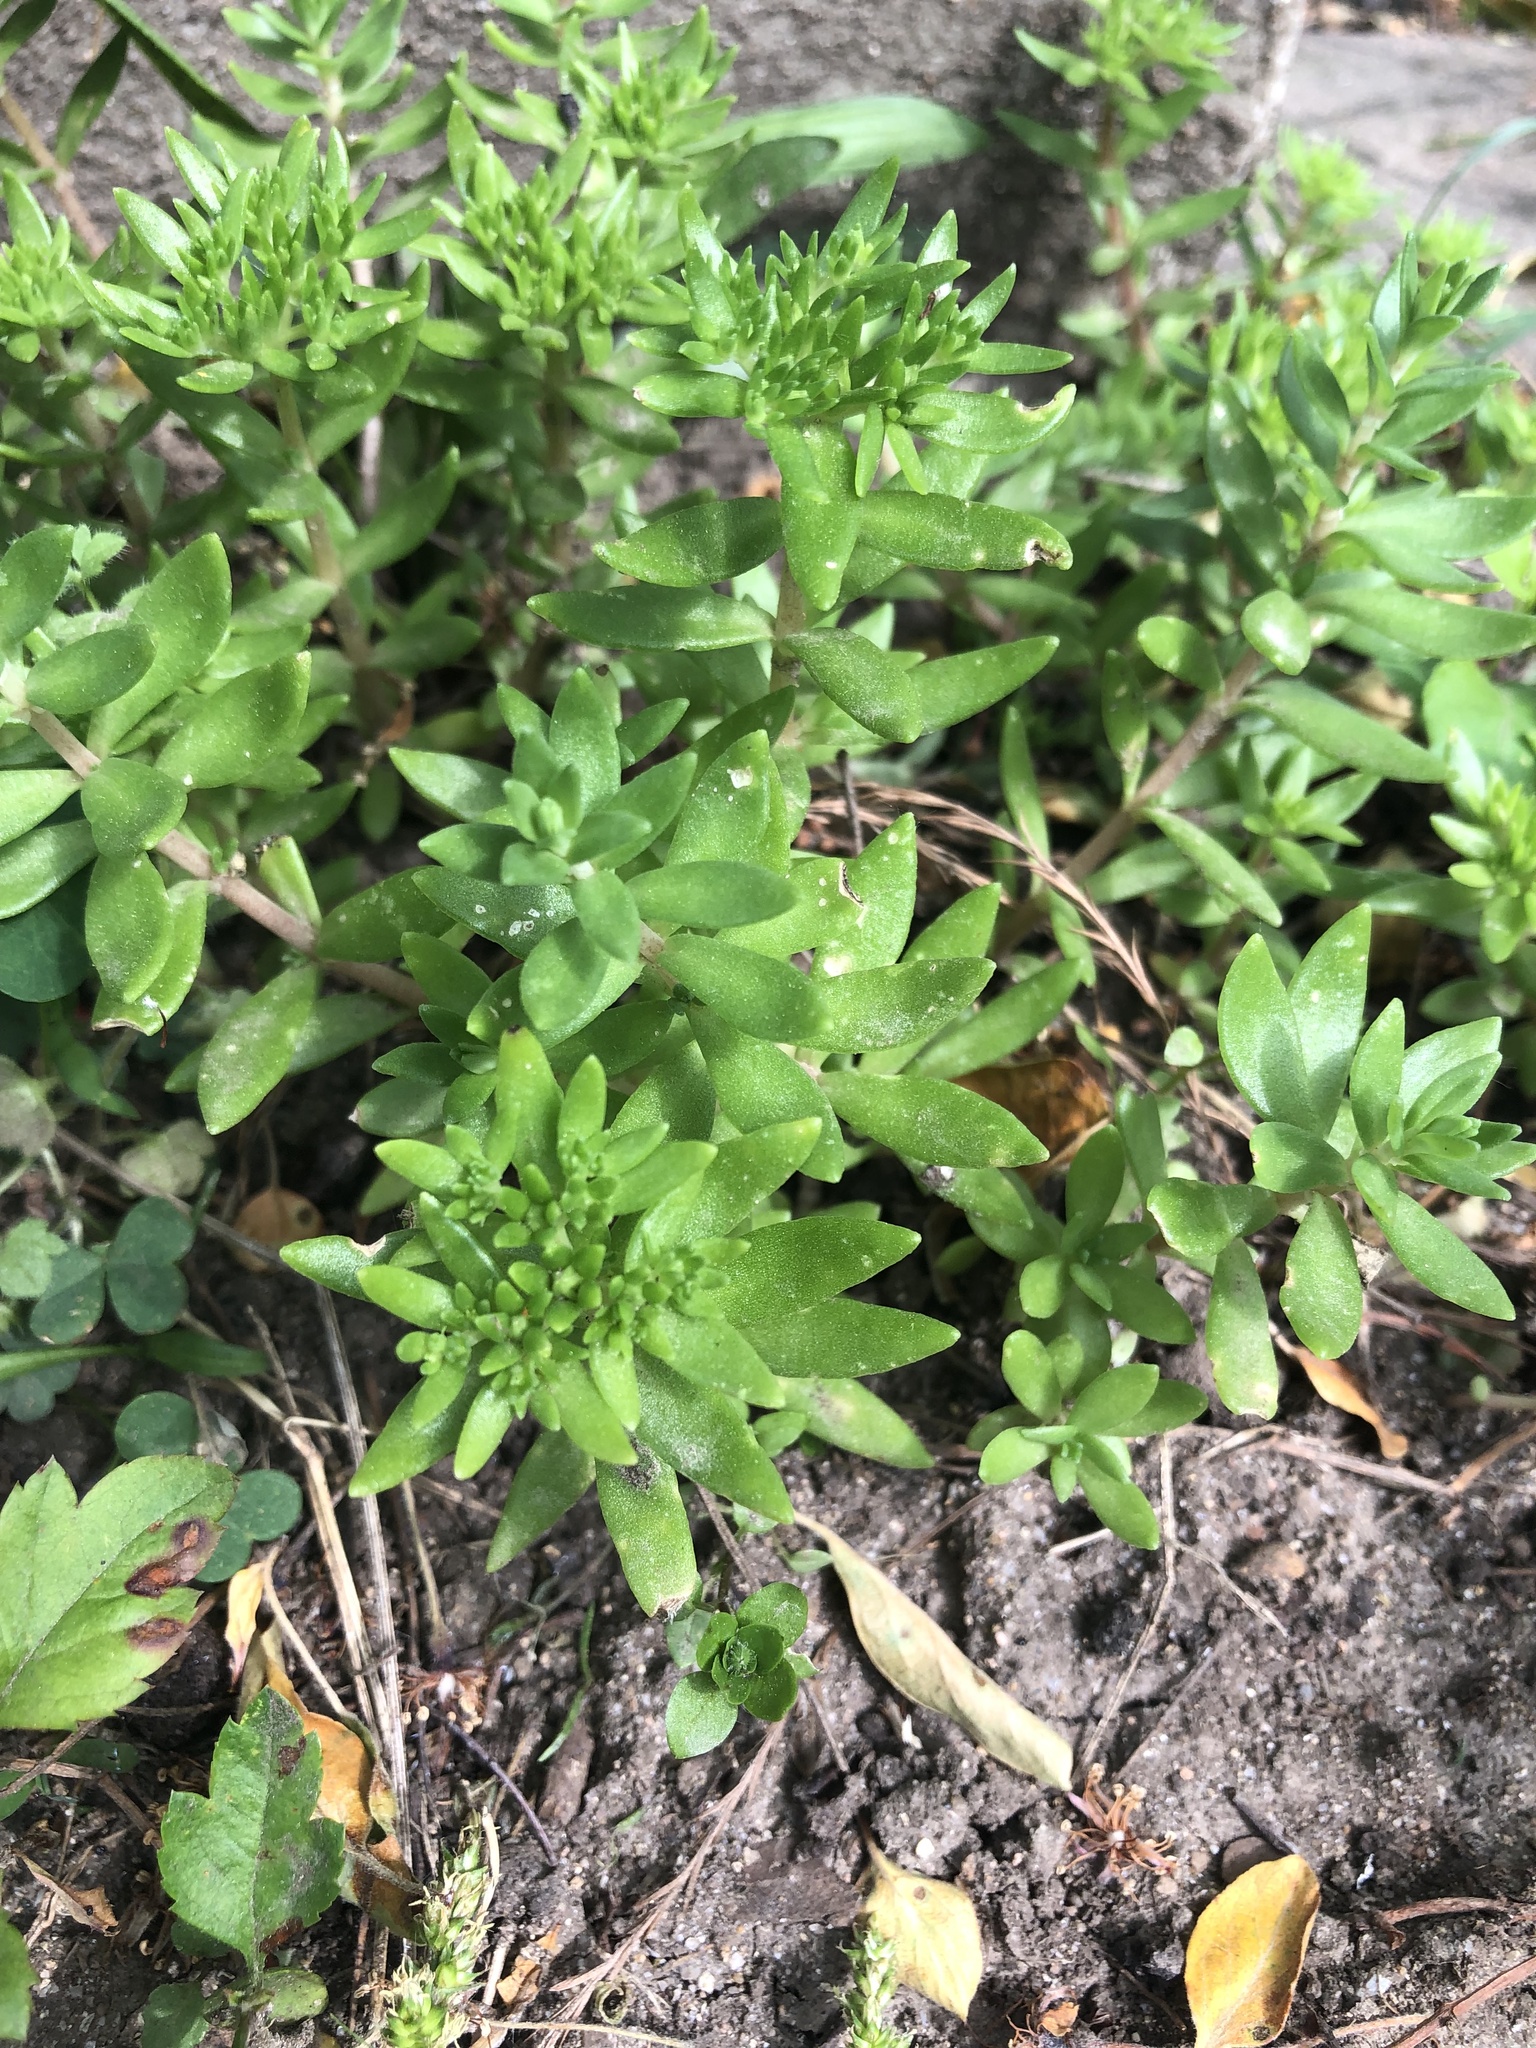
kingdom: Plantae
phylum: Tracheophyta
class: Magnoliopsida
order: Saxifragales
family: Crassulaceae
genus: Sedum
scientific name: Sedum sarmentosum
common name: Stringy stonecrop
